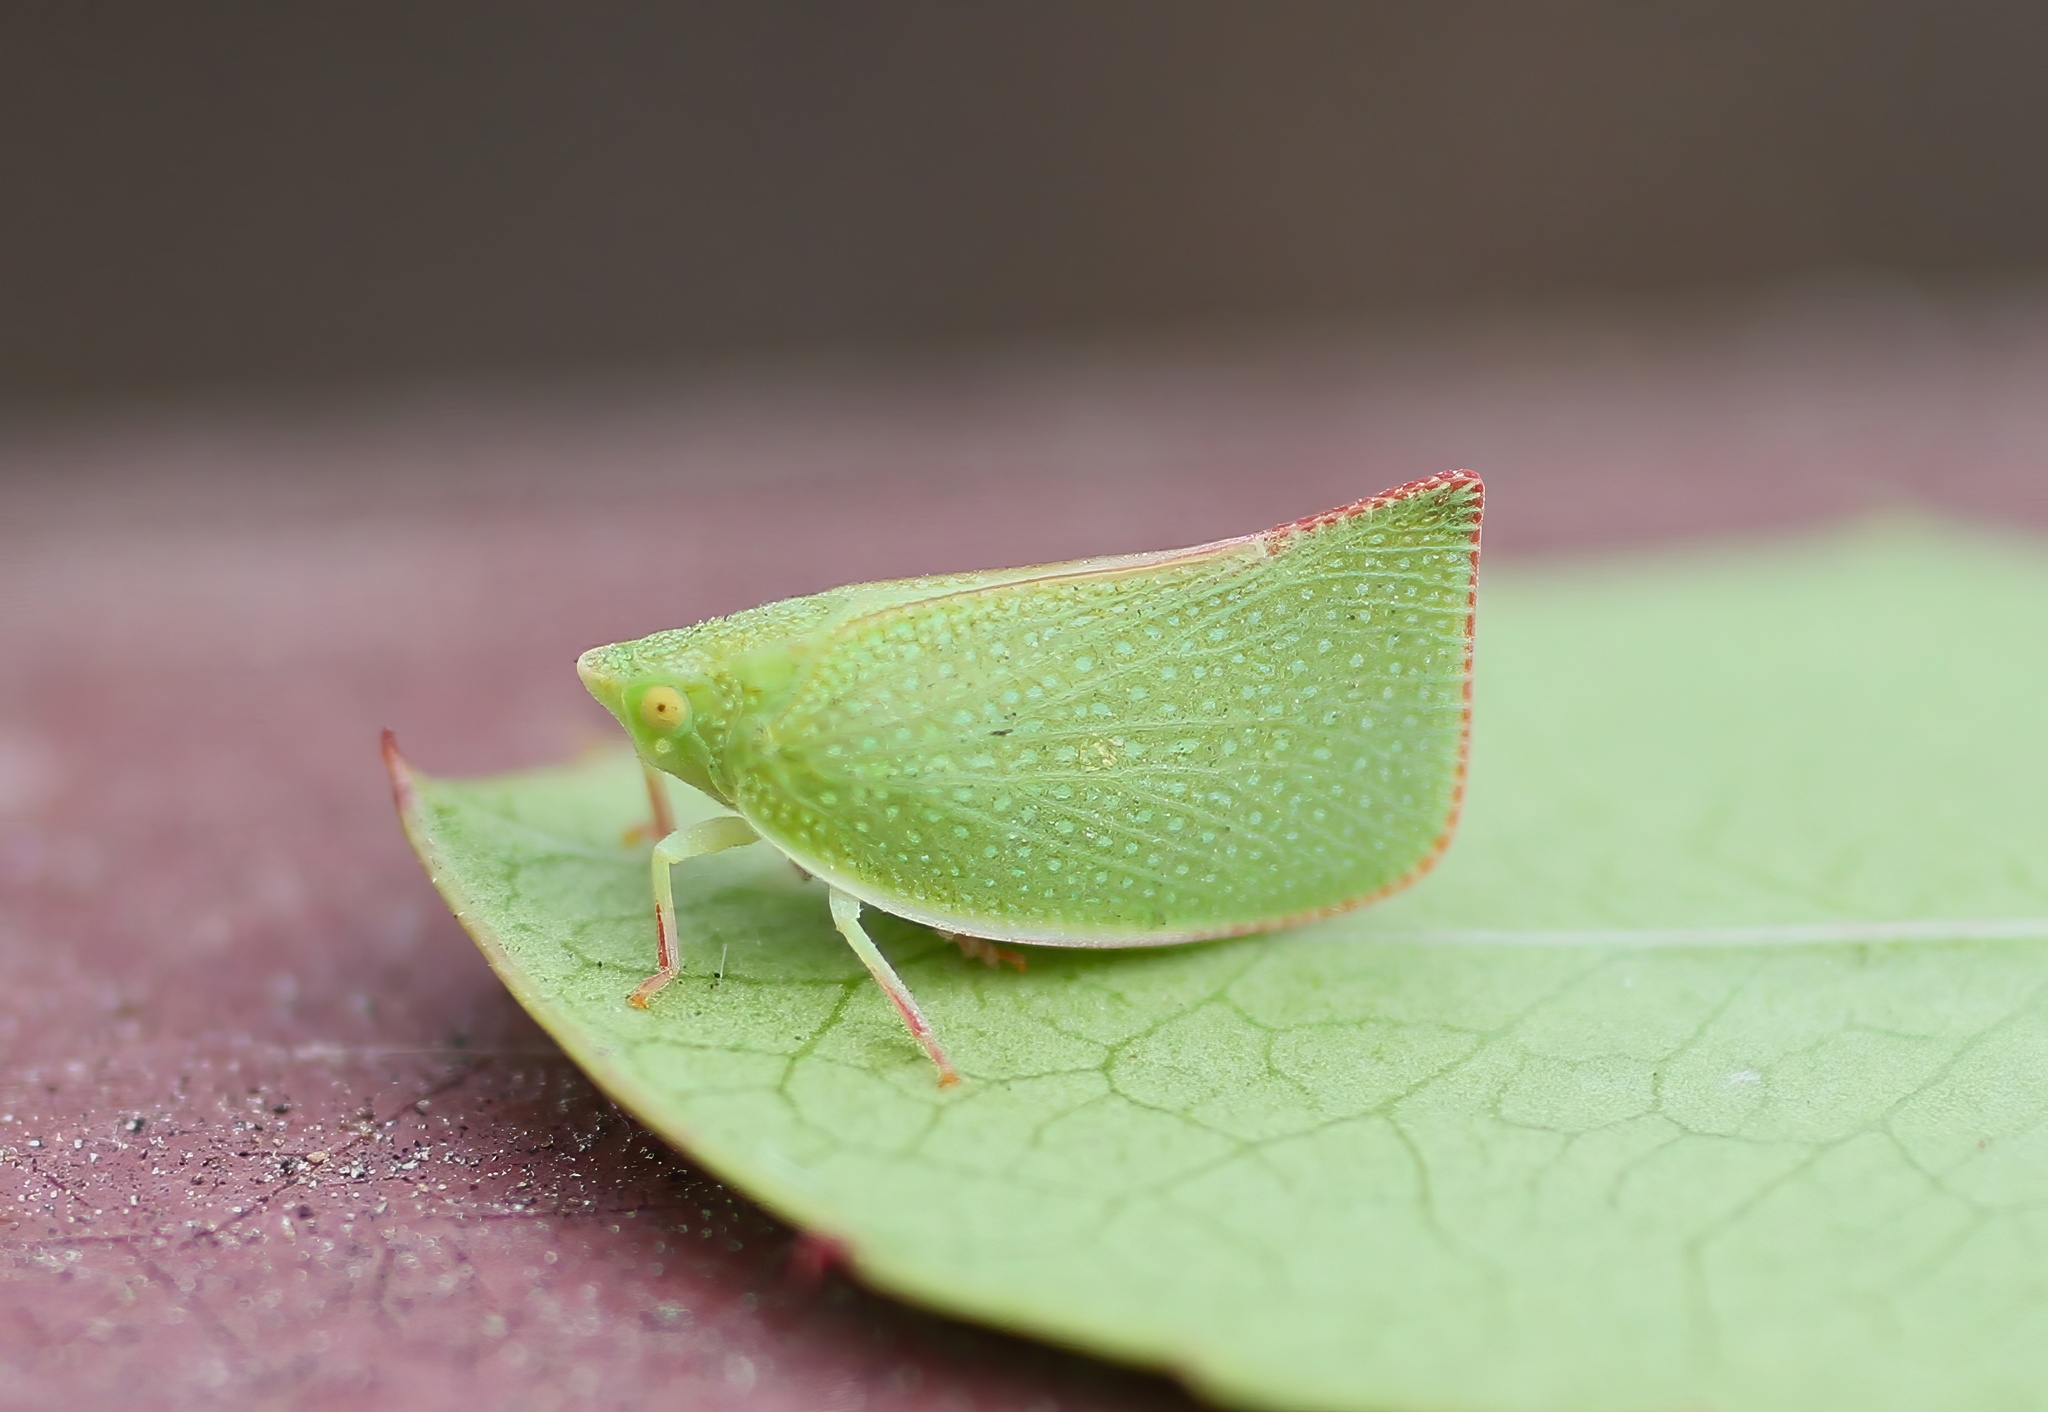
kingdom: Animalia
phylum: Arthropoda
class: Insecta
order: Hemiptera
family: Flatidae
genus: Siphanta
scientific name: Siphanta acuta
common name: Torpedo bug
